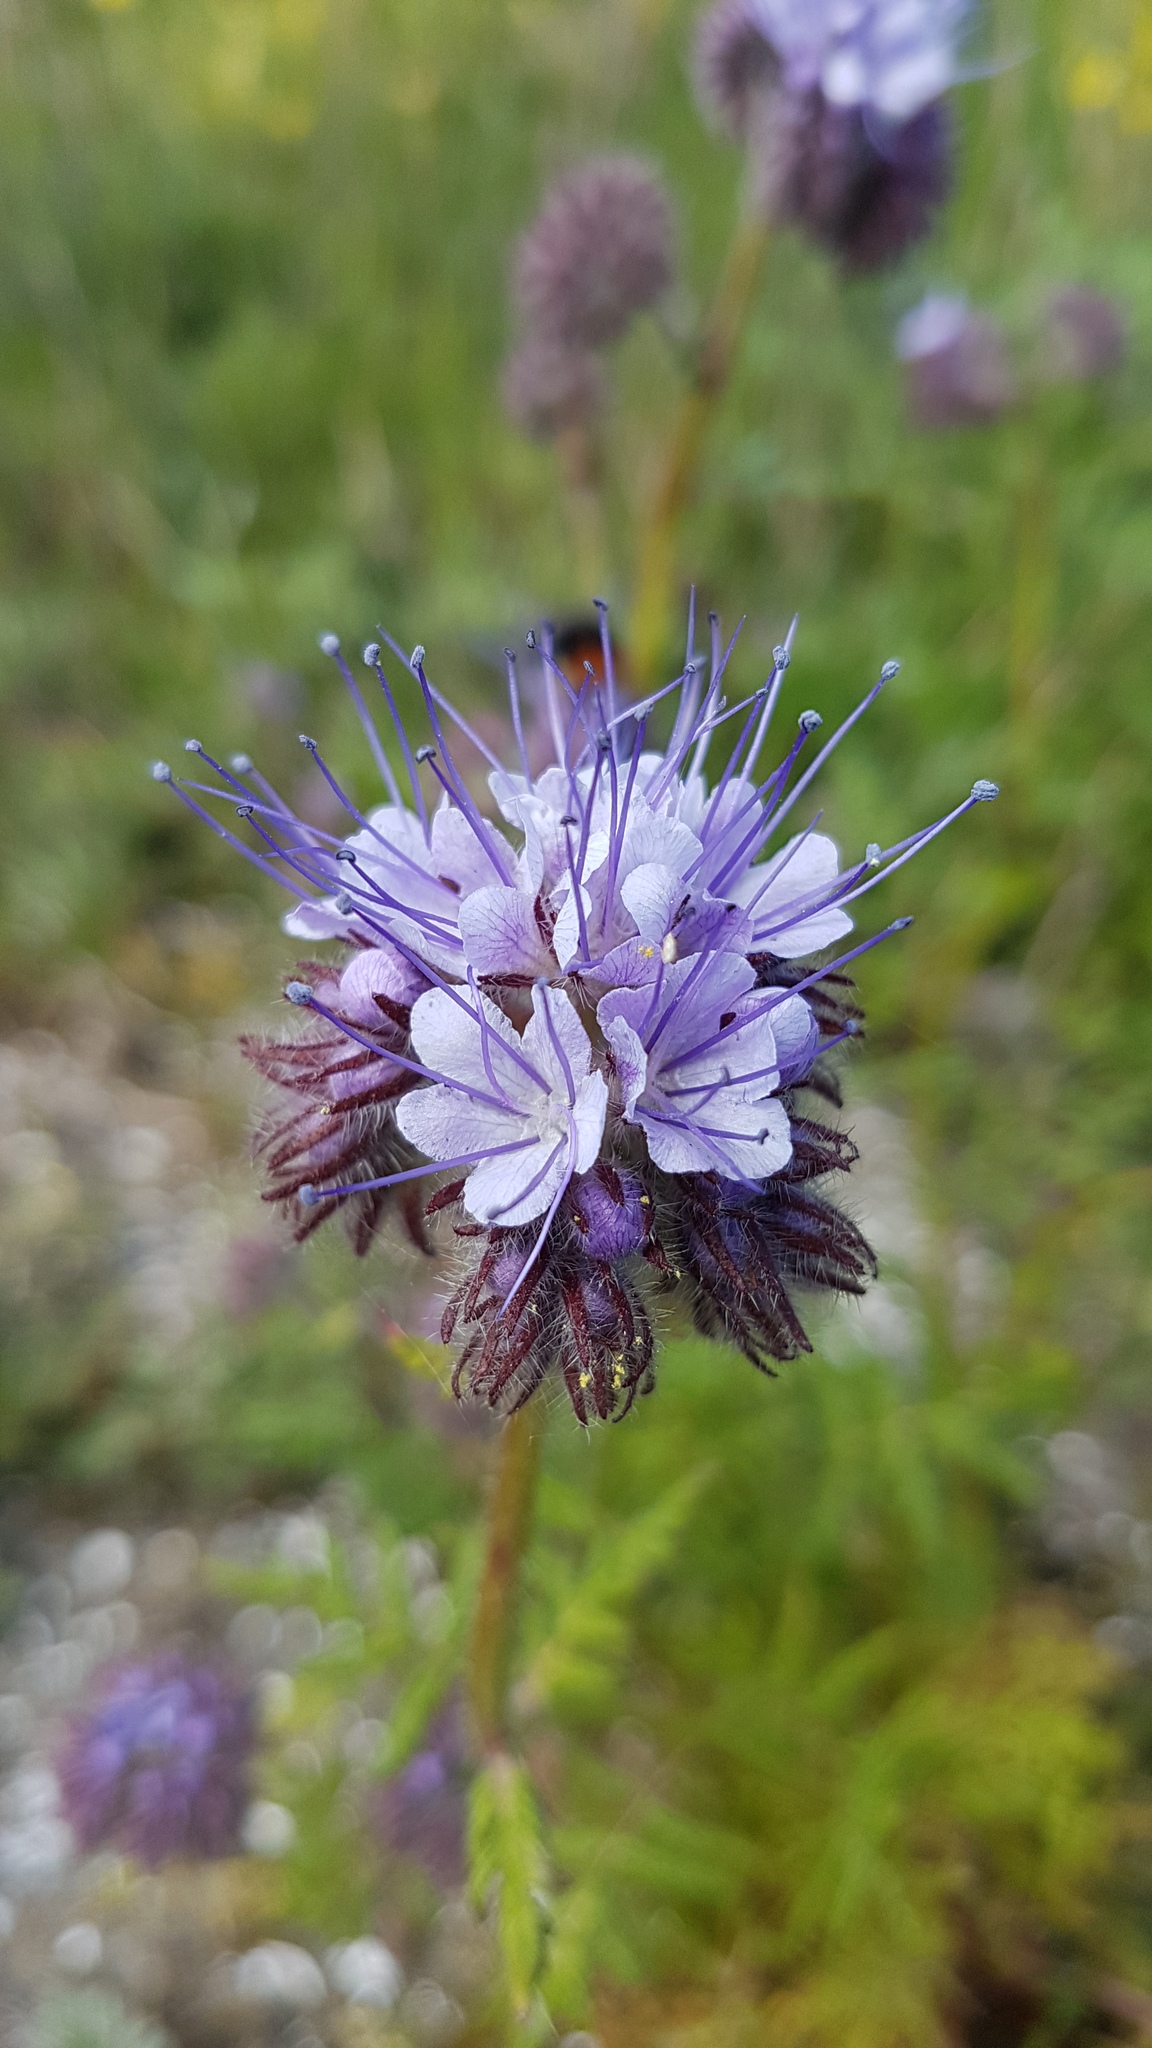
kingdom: Plantae
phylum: Tracheophyta
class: Magnoliopsida
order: Boraginales
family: Hydrophyllaceae
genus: Phacelia
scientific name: Phacelia tanacetifolia
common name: Phacelia
